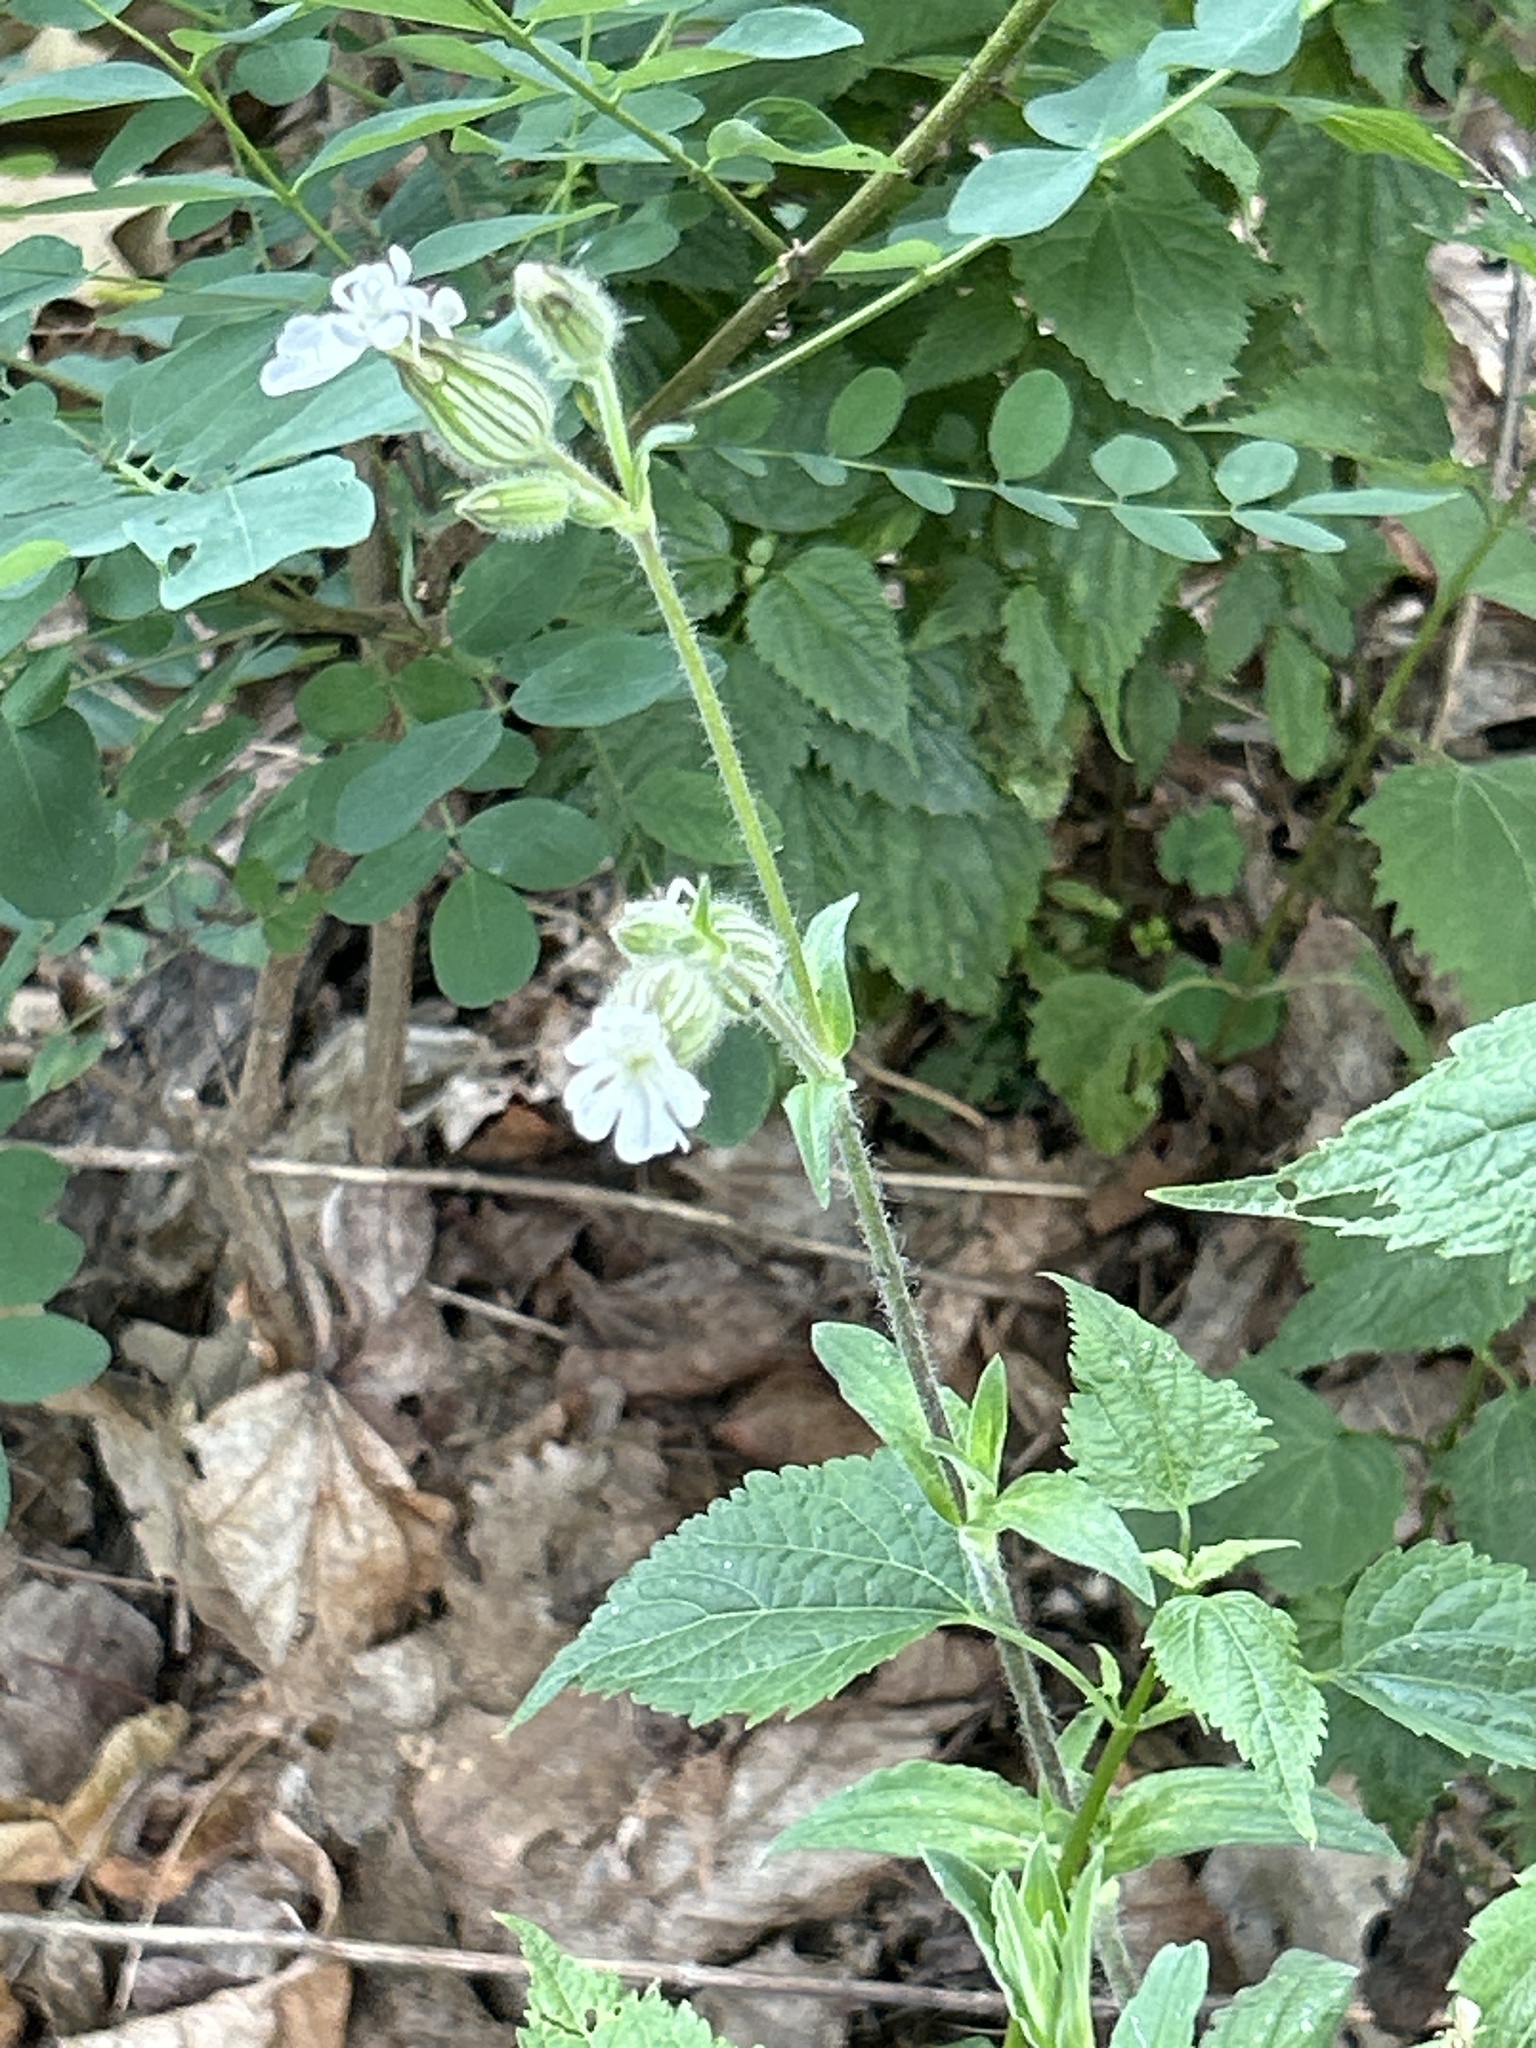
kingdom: Plantae
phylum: Tracheophyta
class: Magnoliopsida
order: Caryophyllales
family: Caryophyllaceae
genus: Silene
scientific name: Silene latifolia
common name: White campion
